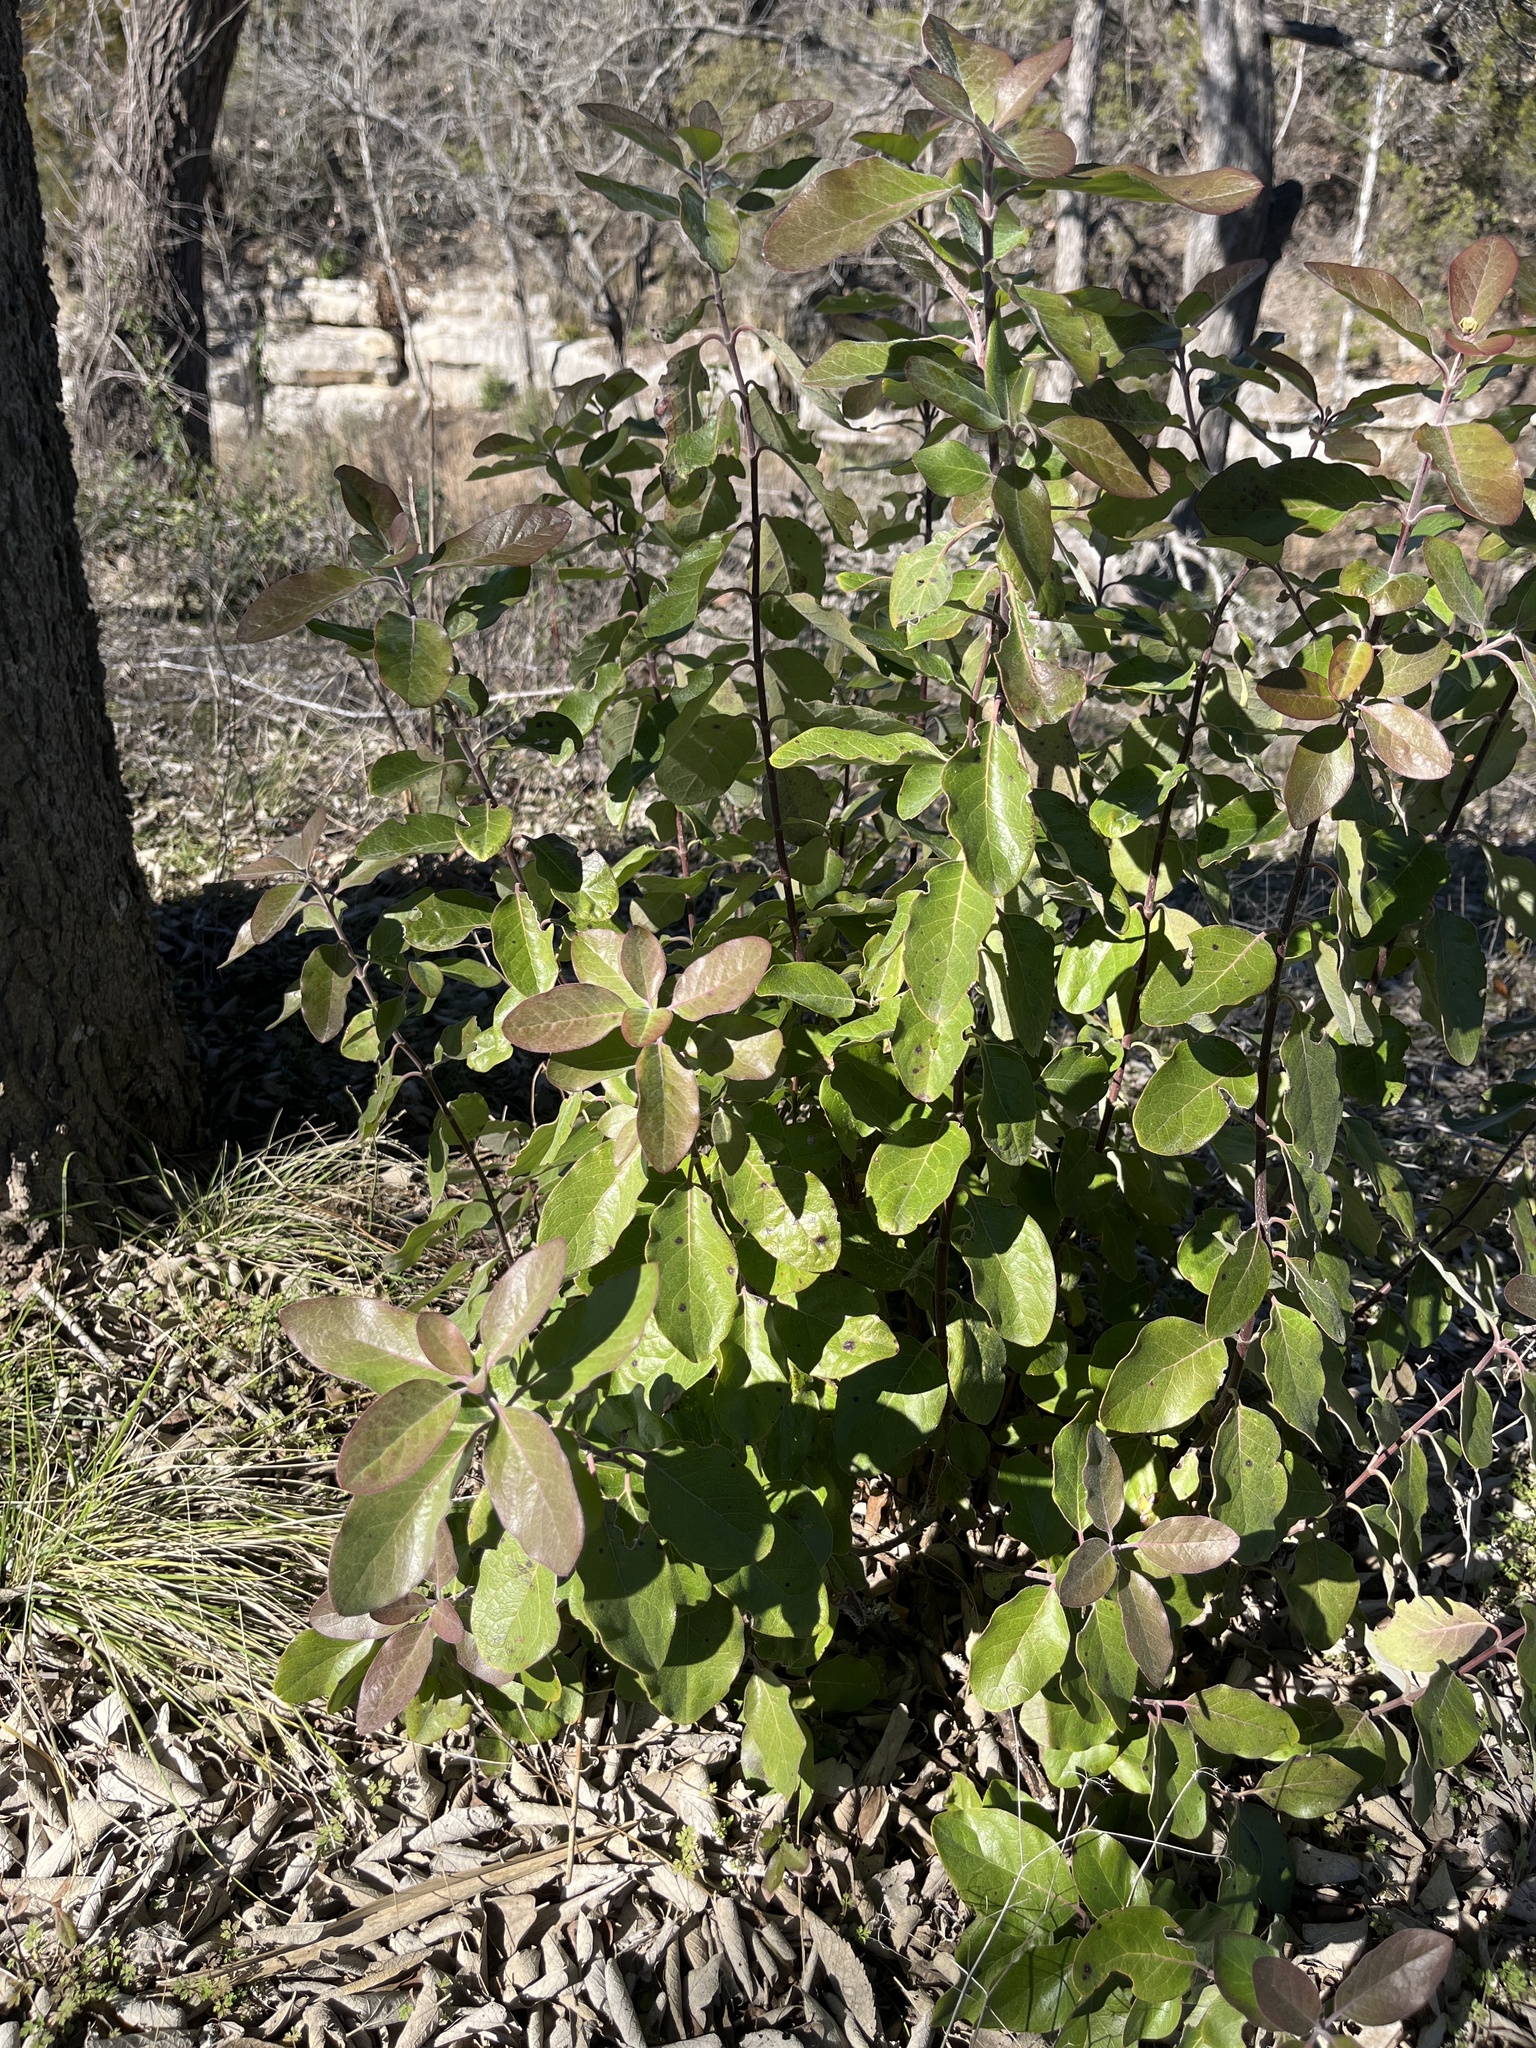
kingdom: Plantae
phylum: Tracheophyta
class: Magnoliopsida
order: Garryales
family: Garryaceae
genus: Garrya
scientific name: Garrya lindheimeri
